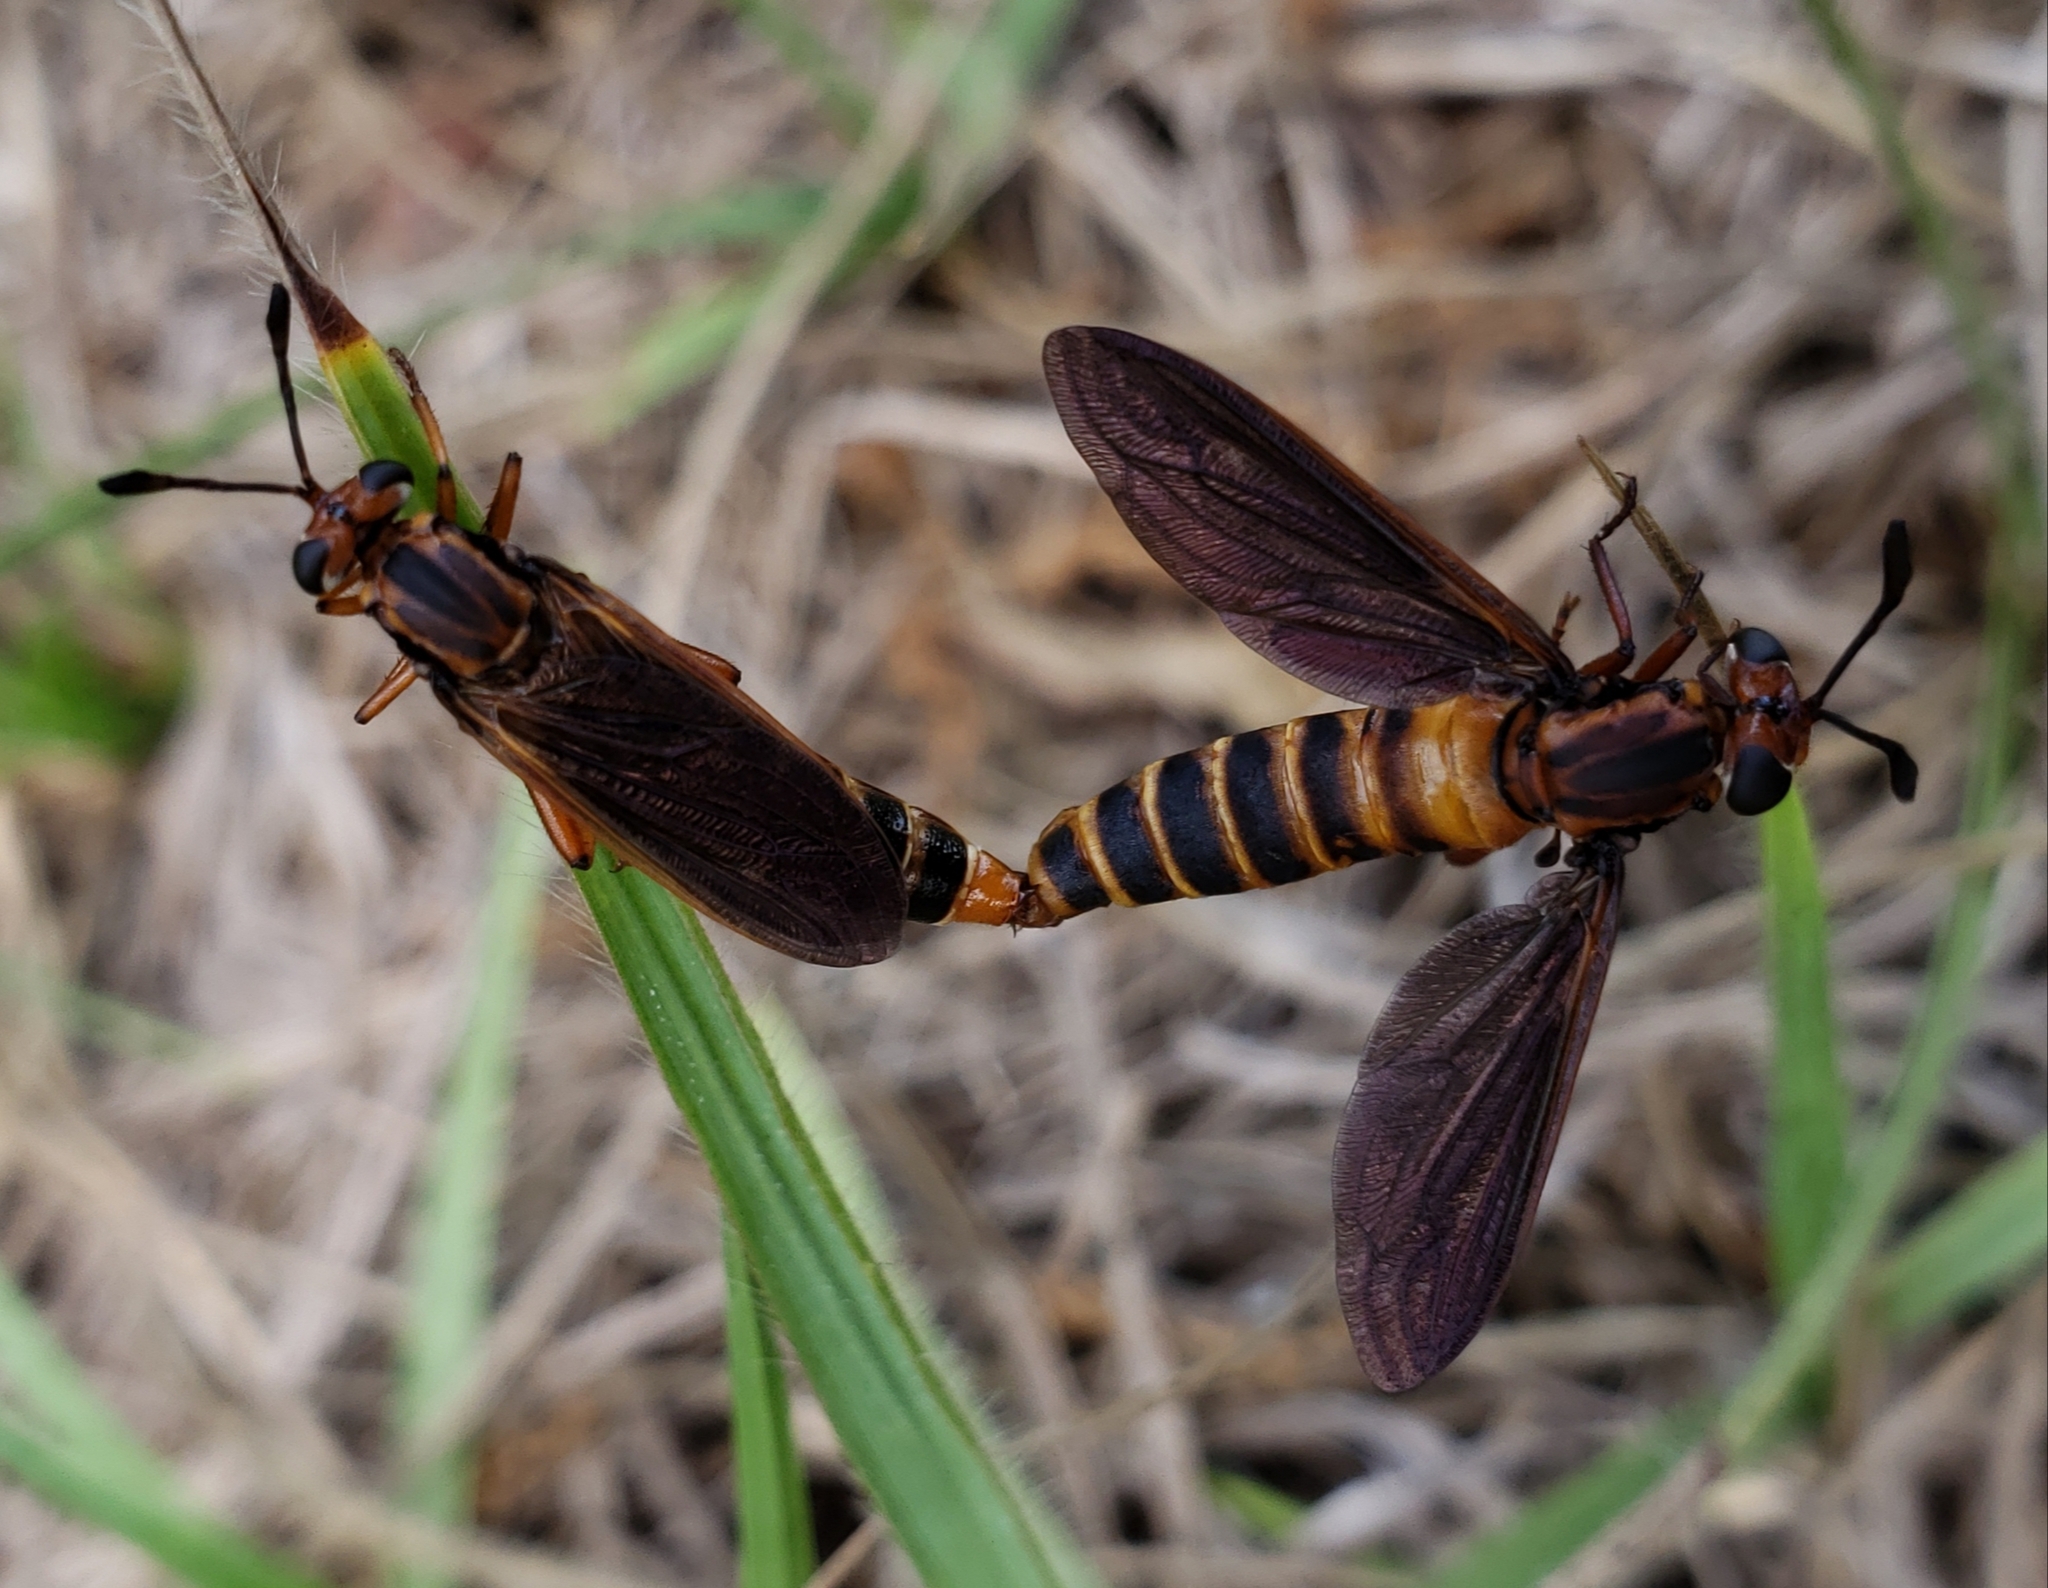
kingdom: Animalia
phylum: Arthropoda
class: Insecta
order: Diptera
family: Mydidae
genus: Phyllomydas
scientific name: Phyllomydas parvulus
